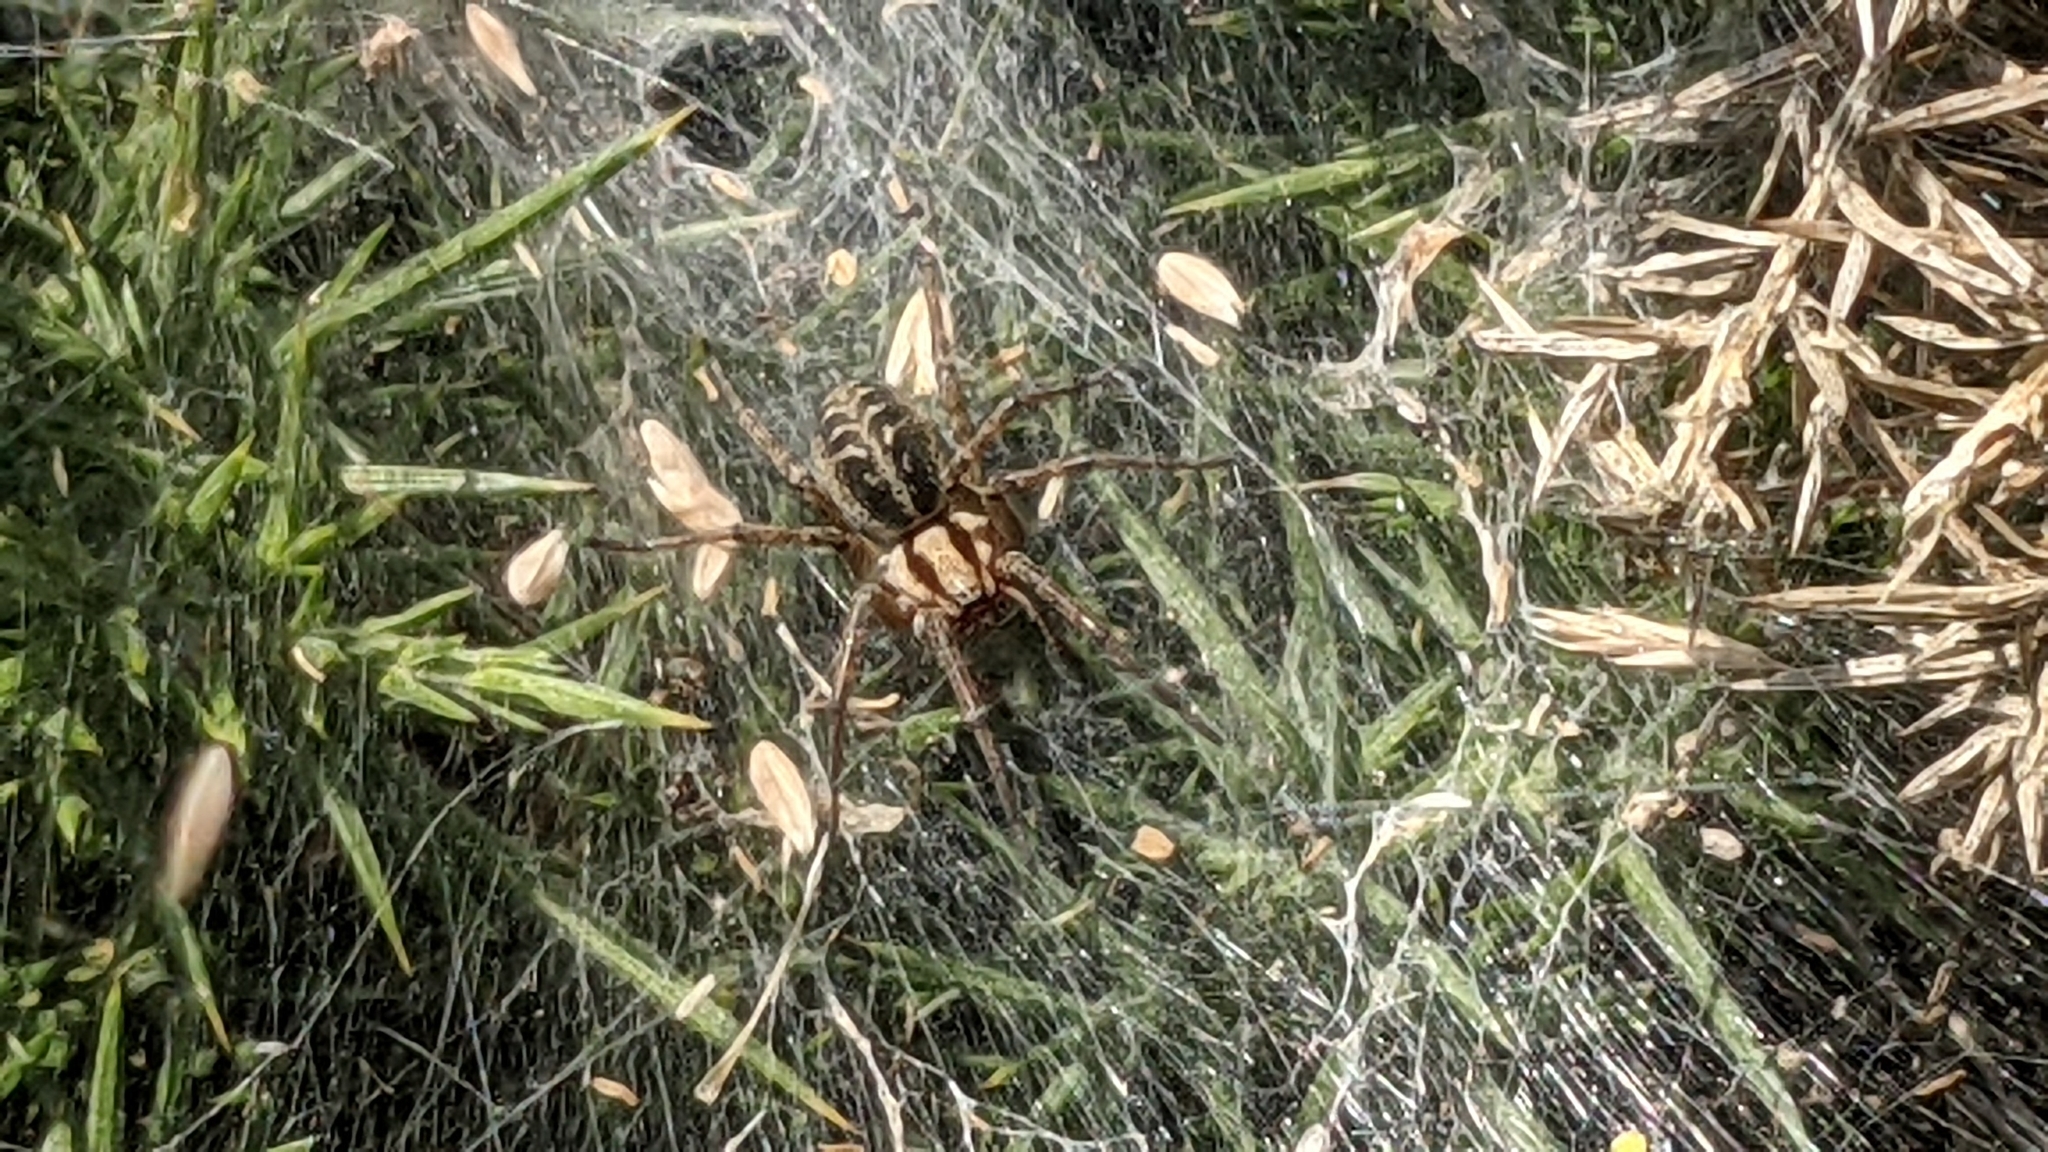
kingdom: Animalia
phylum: Arthropoda
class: Arachnida
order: Araneae
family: Agelenidae
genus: Agelena
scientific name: Agelena labyrinthica
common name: Labyrinth spider
